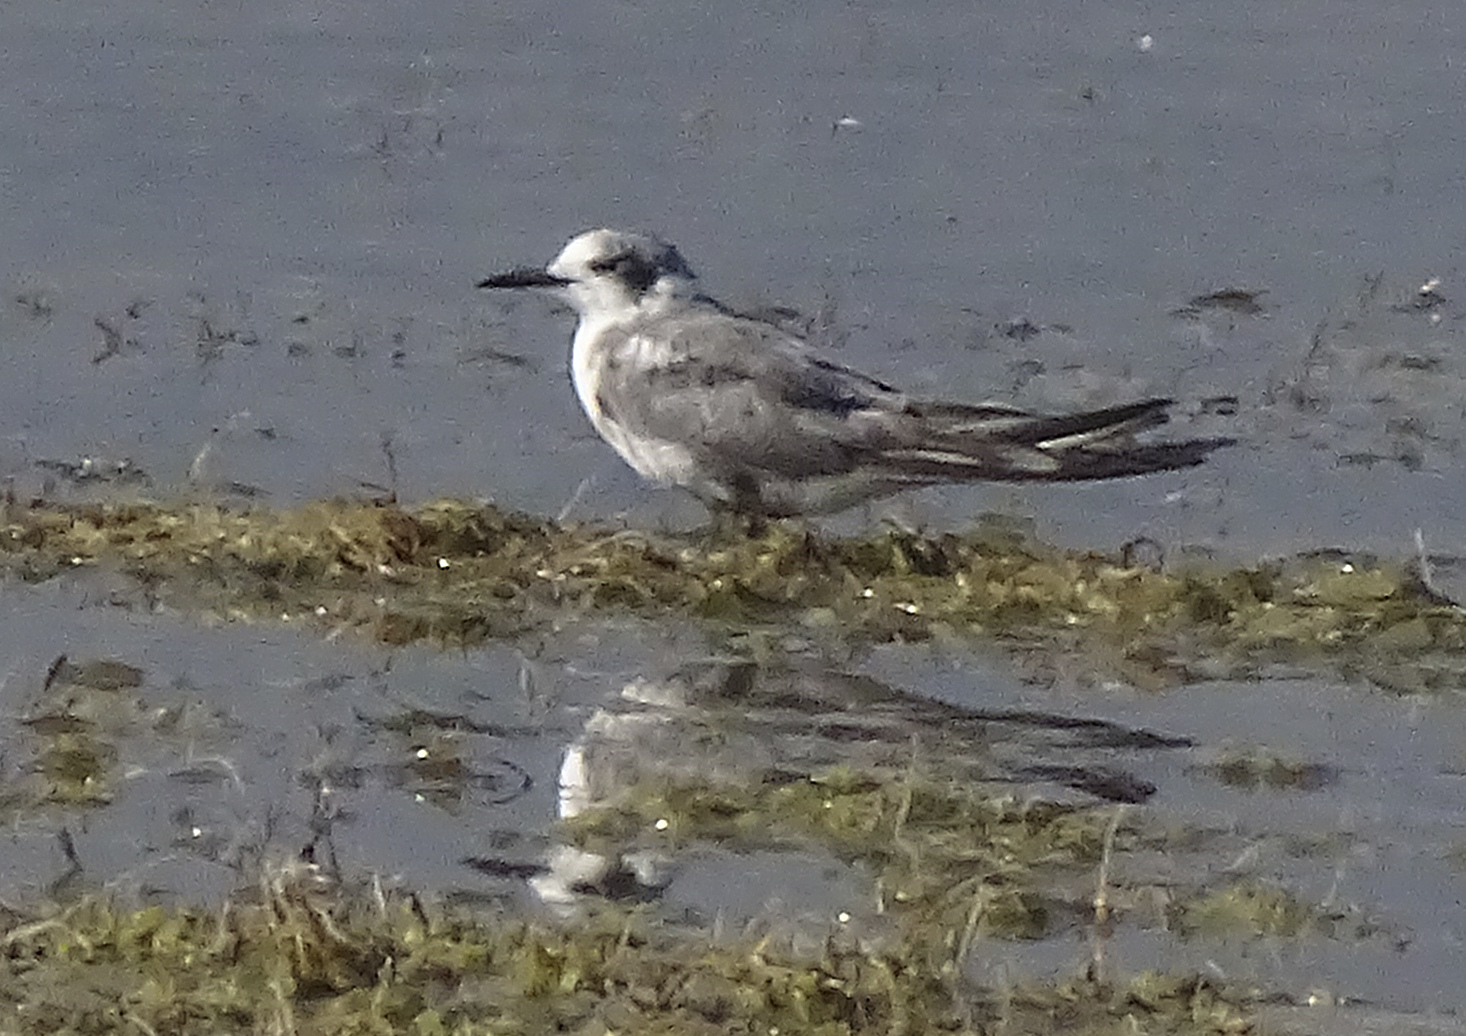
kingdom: Animalia
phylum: Chordata
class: Aves
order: Charadriiformes
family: Laridae
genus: Chlidonias
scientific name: Chlidonias niger
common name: Black tern
